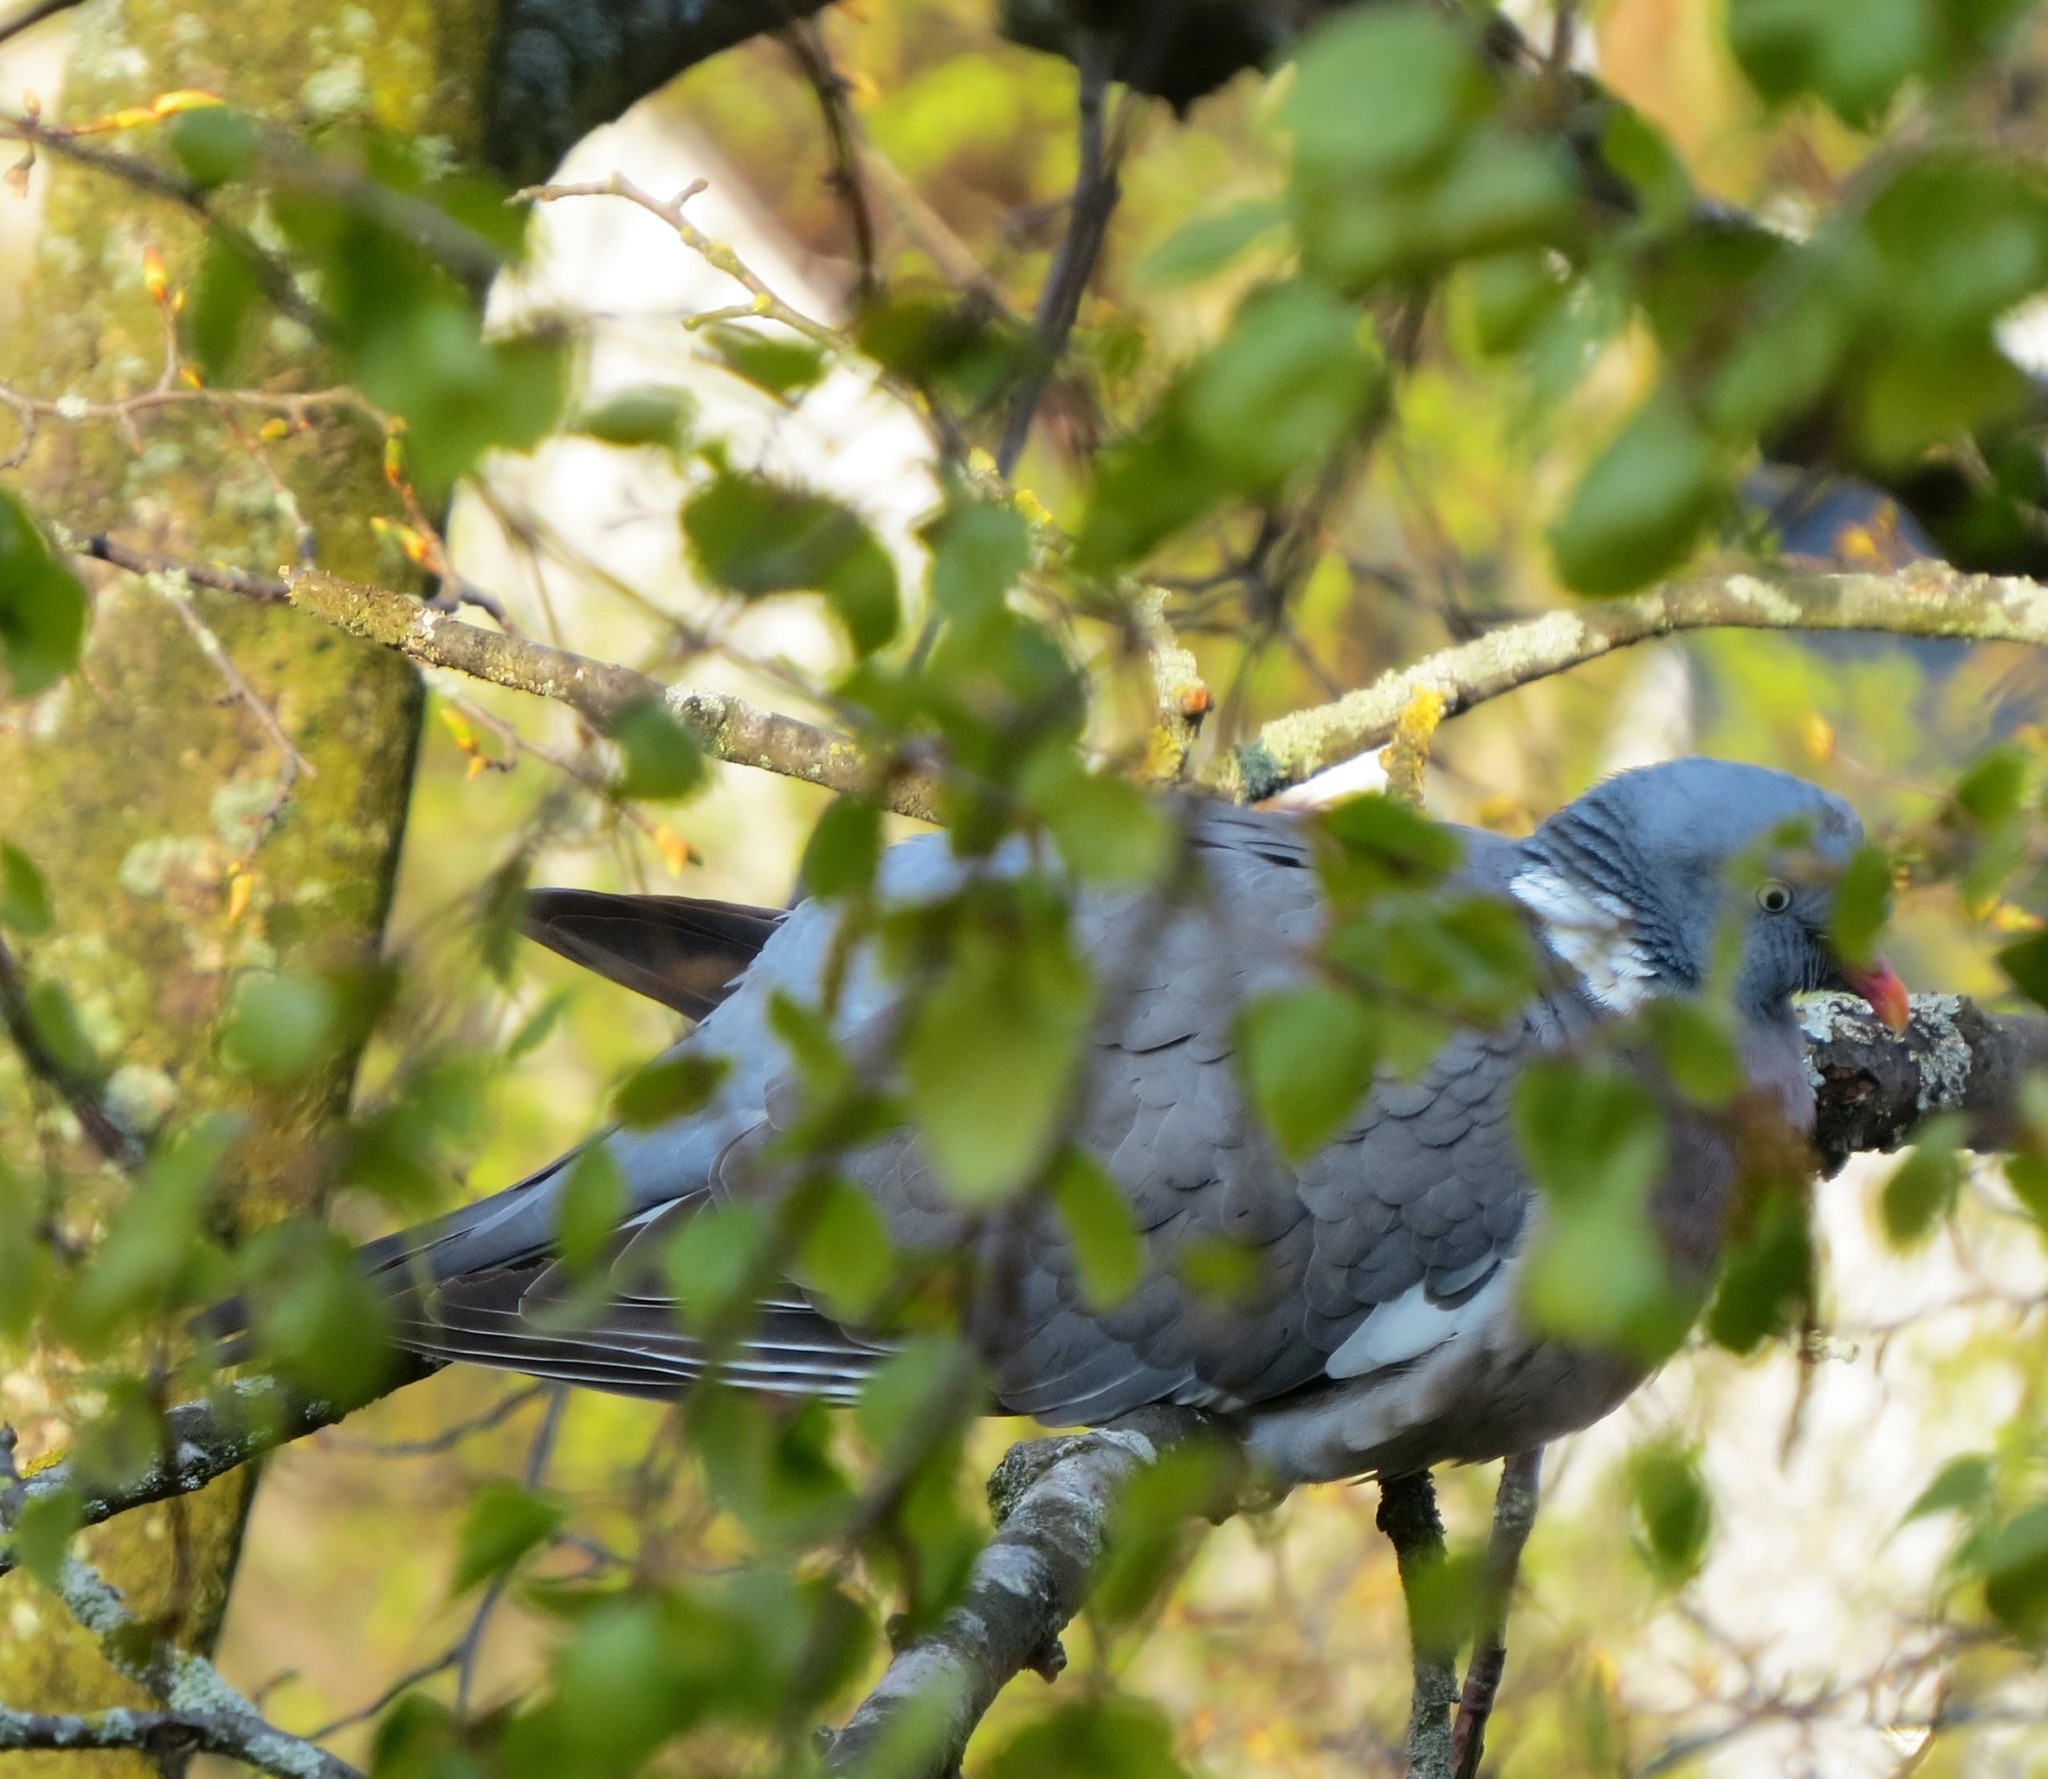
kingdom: Animalia
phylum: Chordata
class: Aves
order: Columbiformes
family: Columbidae
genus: Columba
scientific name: Columba palumbus
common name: Common wood pigeon
